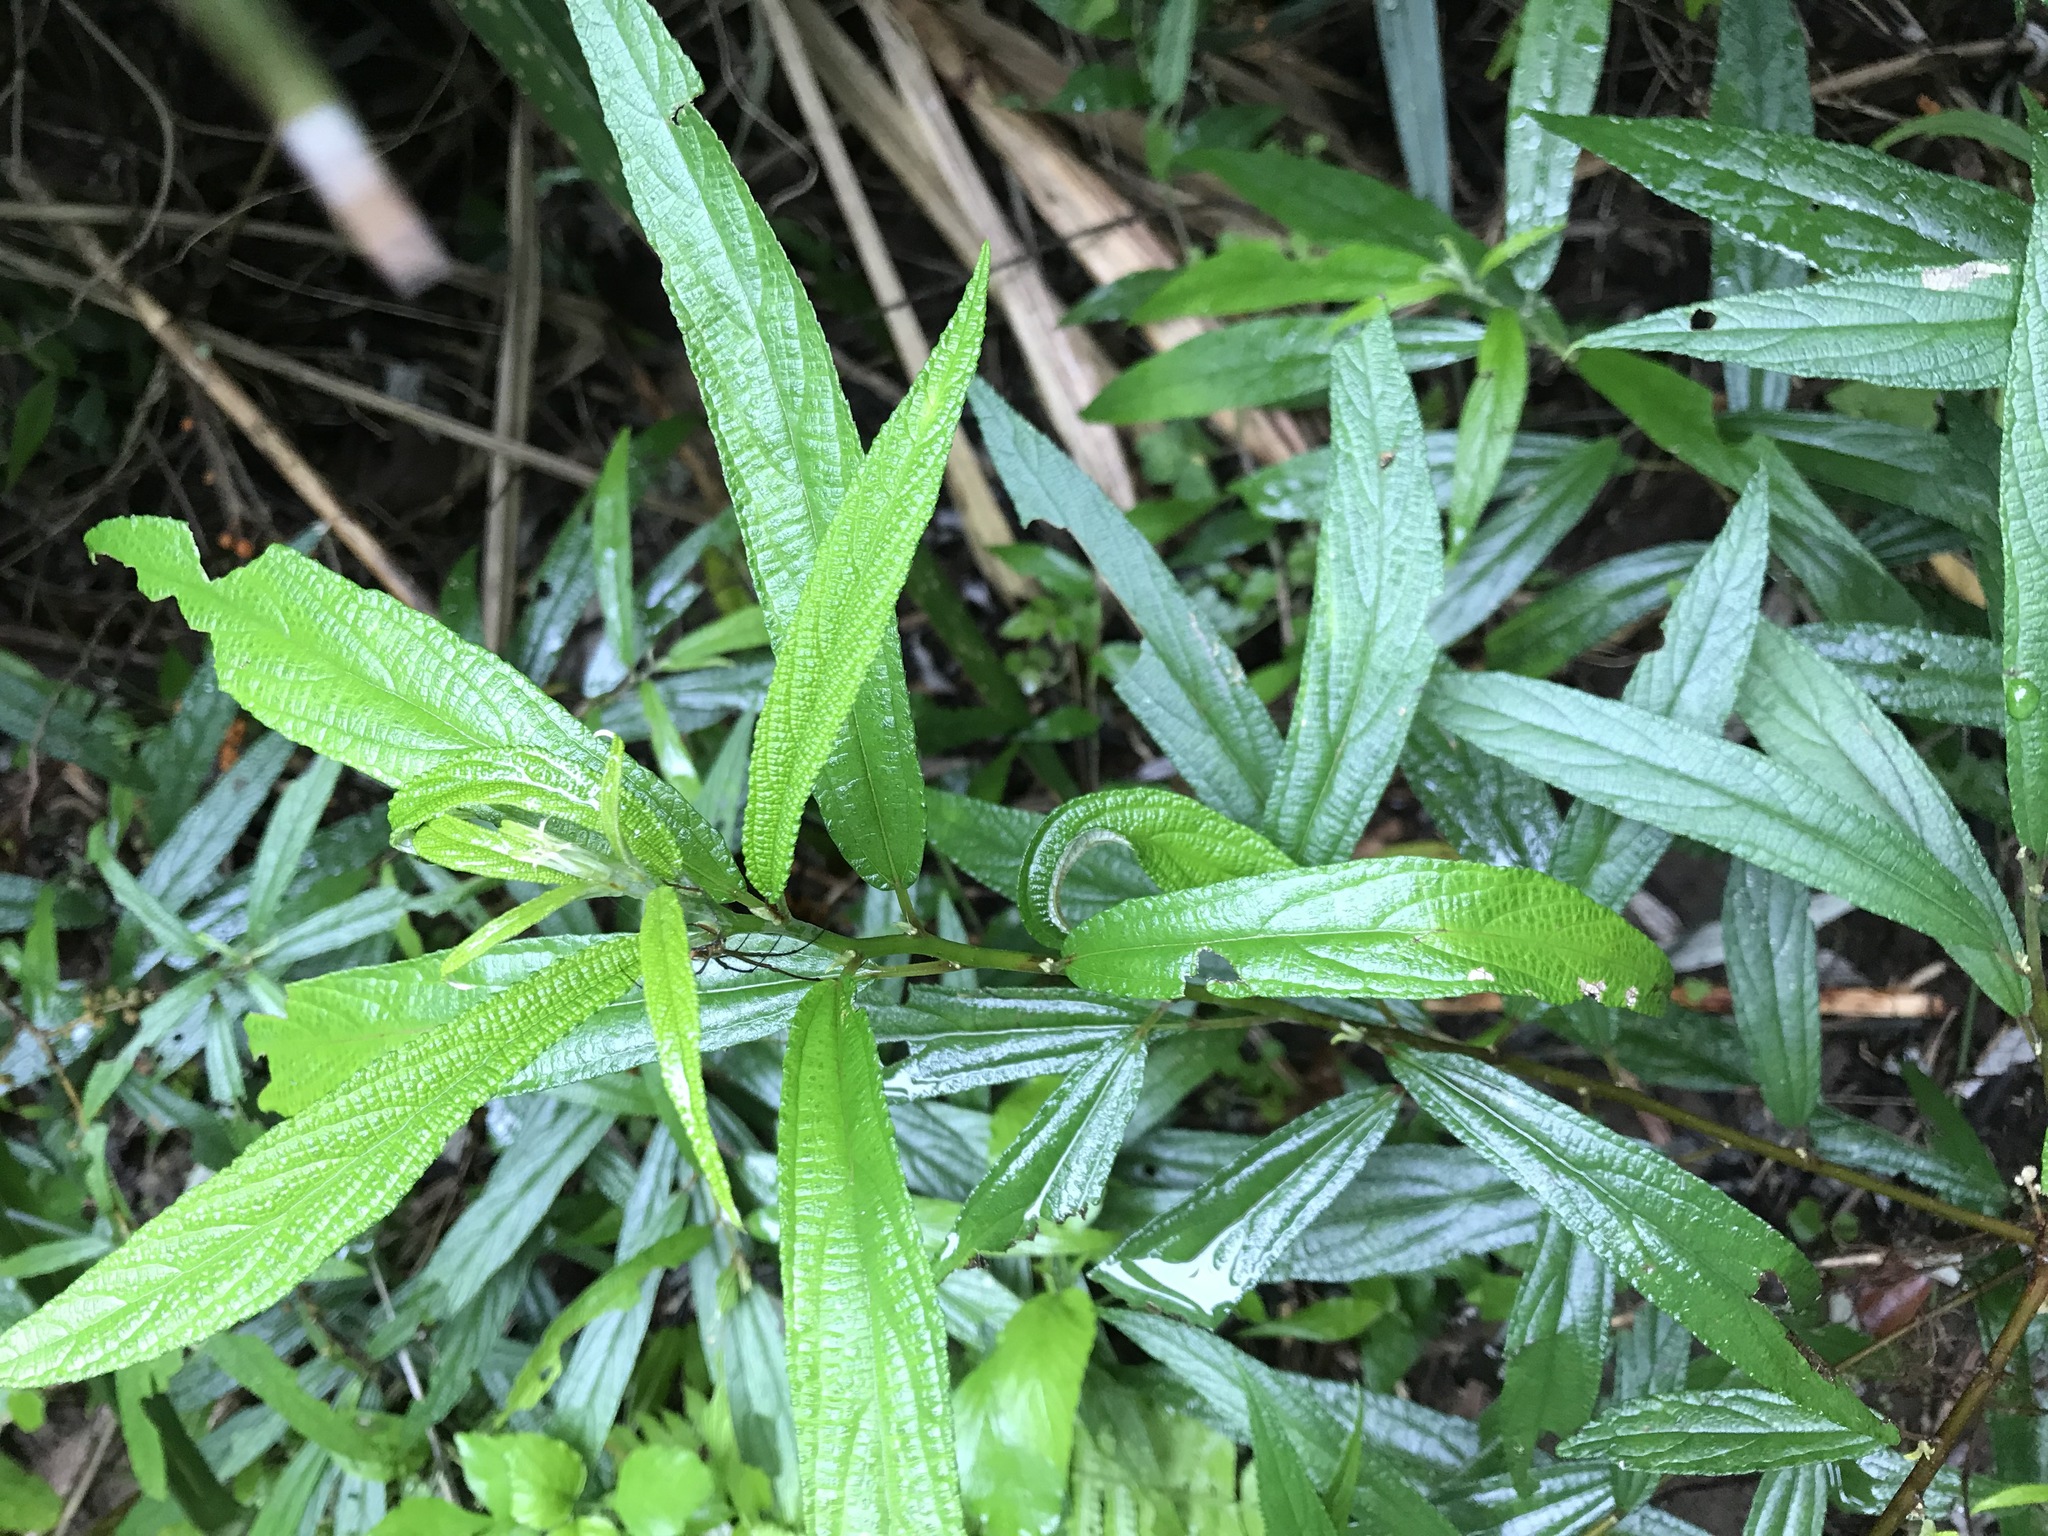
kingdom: Plantae
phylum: Tracheophyta
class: Magnoliopsida
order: Rosales
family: Urticaceae
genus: Debregeasia
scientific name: Debregeasia orientalis
